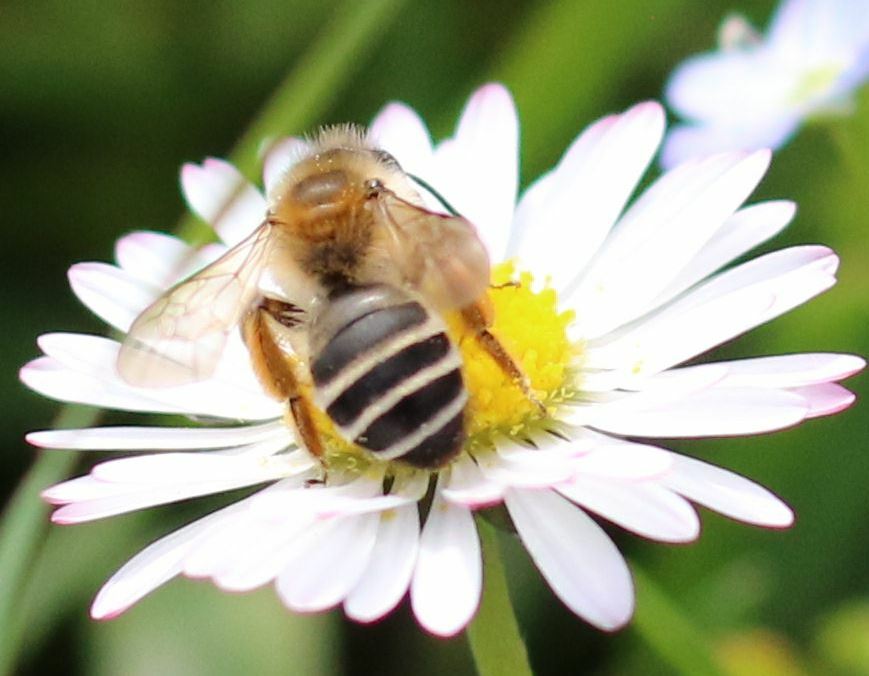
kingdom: Animalia
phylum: Arthropoda
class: Insecta
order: Hymenoptera
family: Andrenidae
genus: Andrena
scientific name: Andrena gravida
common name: White-bellied mining bee
